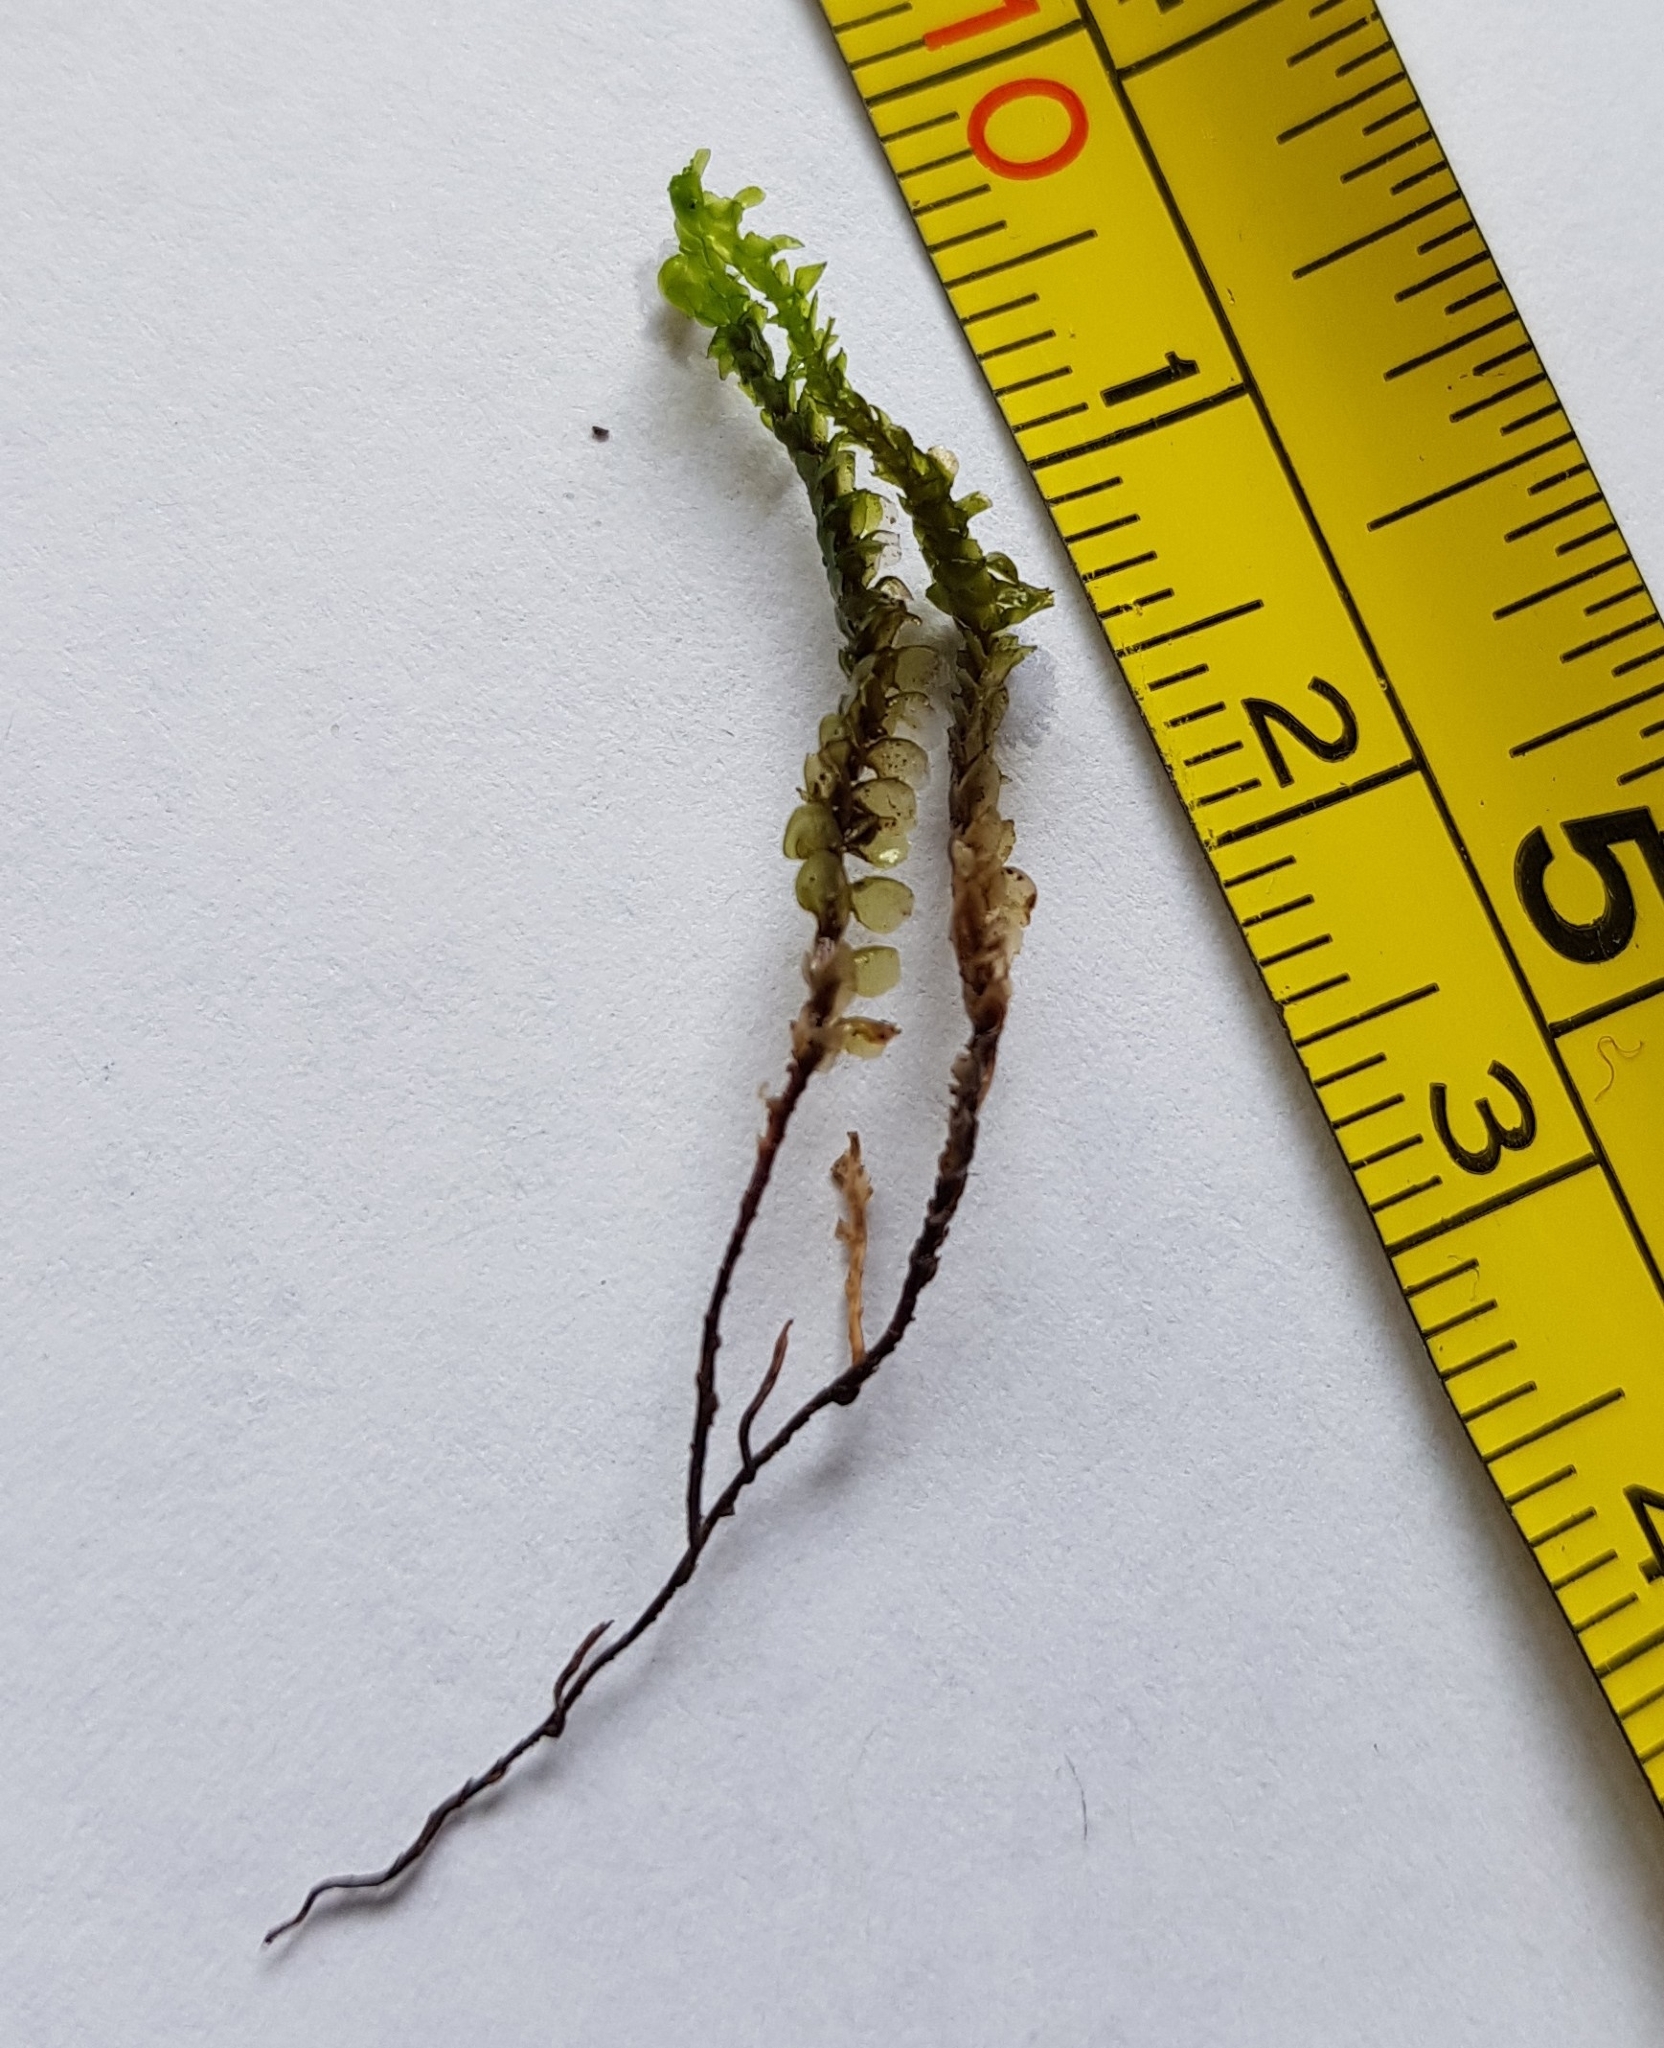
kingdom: Plantae
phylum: Marchantiophyta
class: Jungermanniopsida
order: Jungermanniales
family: Scapaniaceae
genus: Scapania
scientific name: Scapania aspera
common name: Rough earwort
